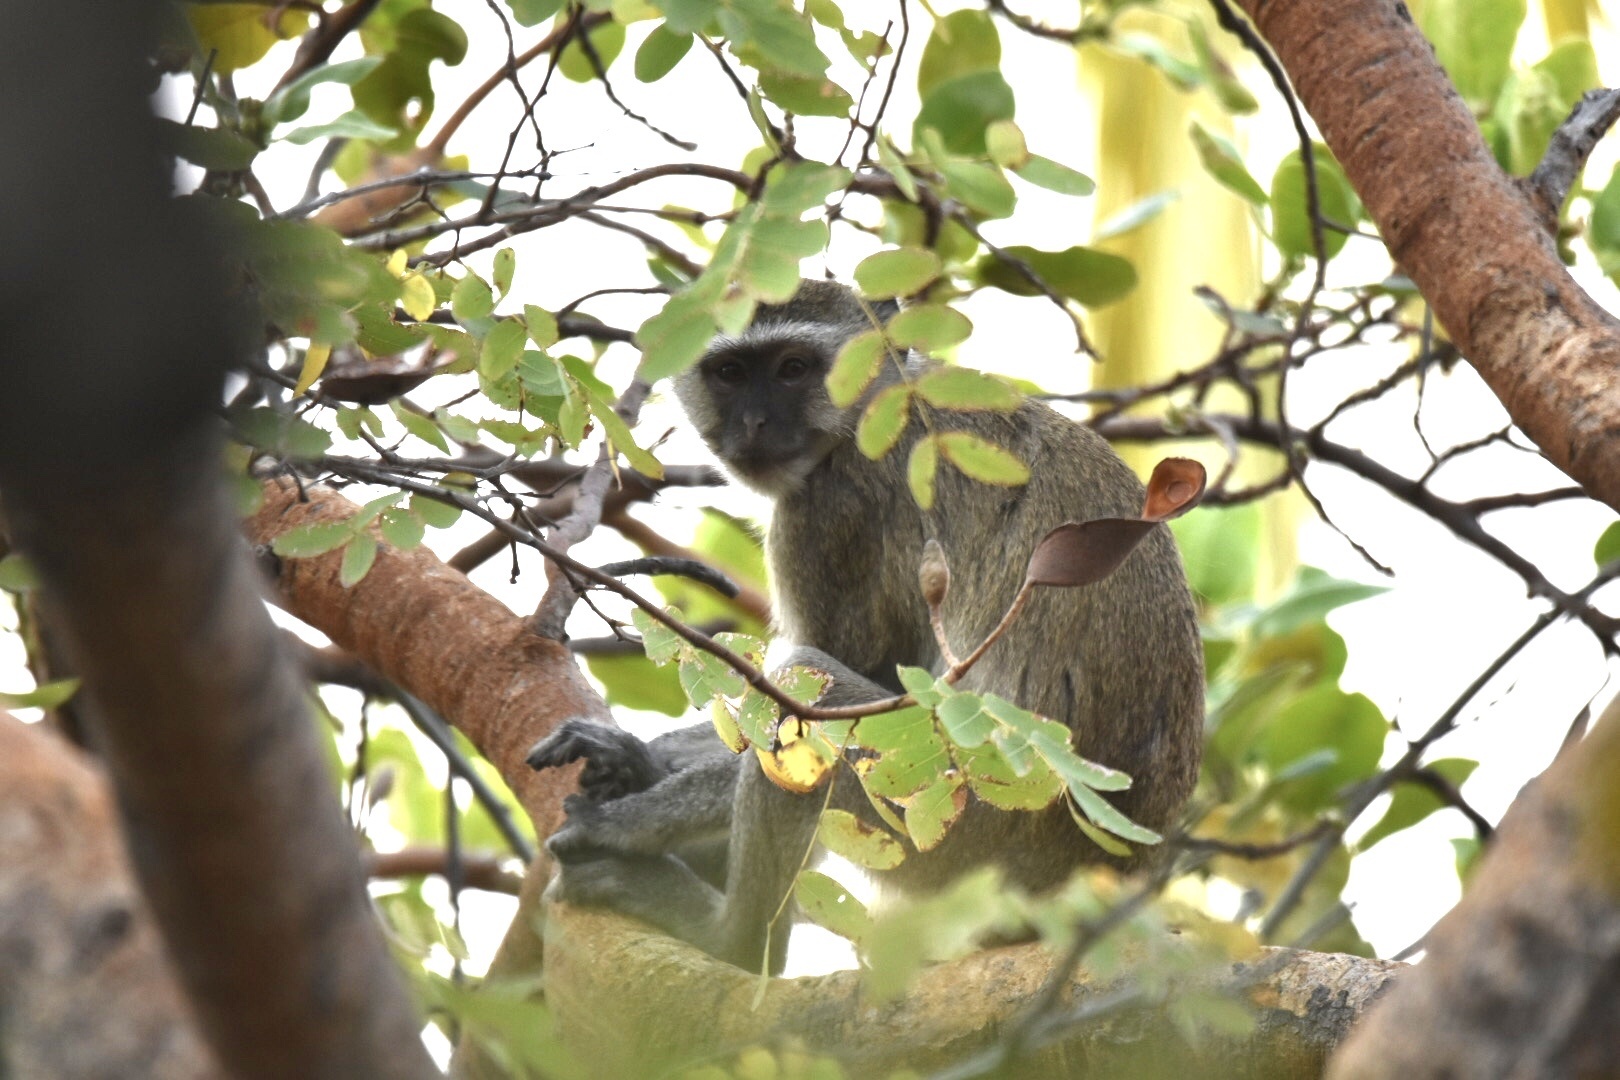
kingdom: Animalia
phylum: Chordata
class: Mammalia
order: Primates
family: Cercopithecidae
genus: Chlorocebus
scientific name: Chlorocebus pygerythrus
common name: Vervet monkey
